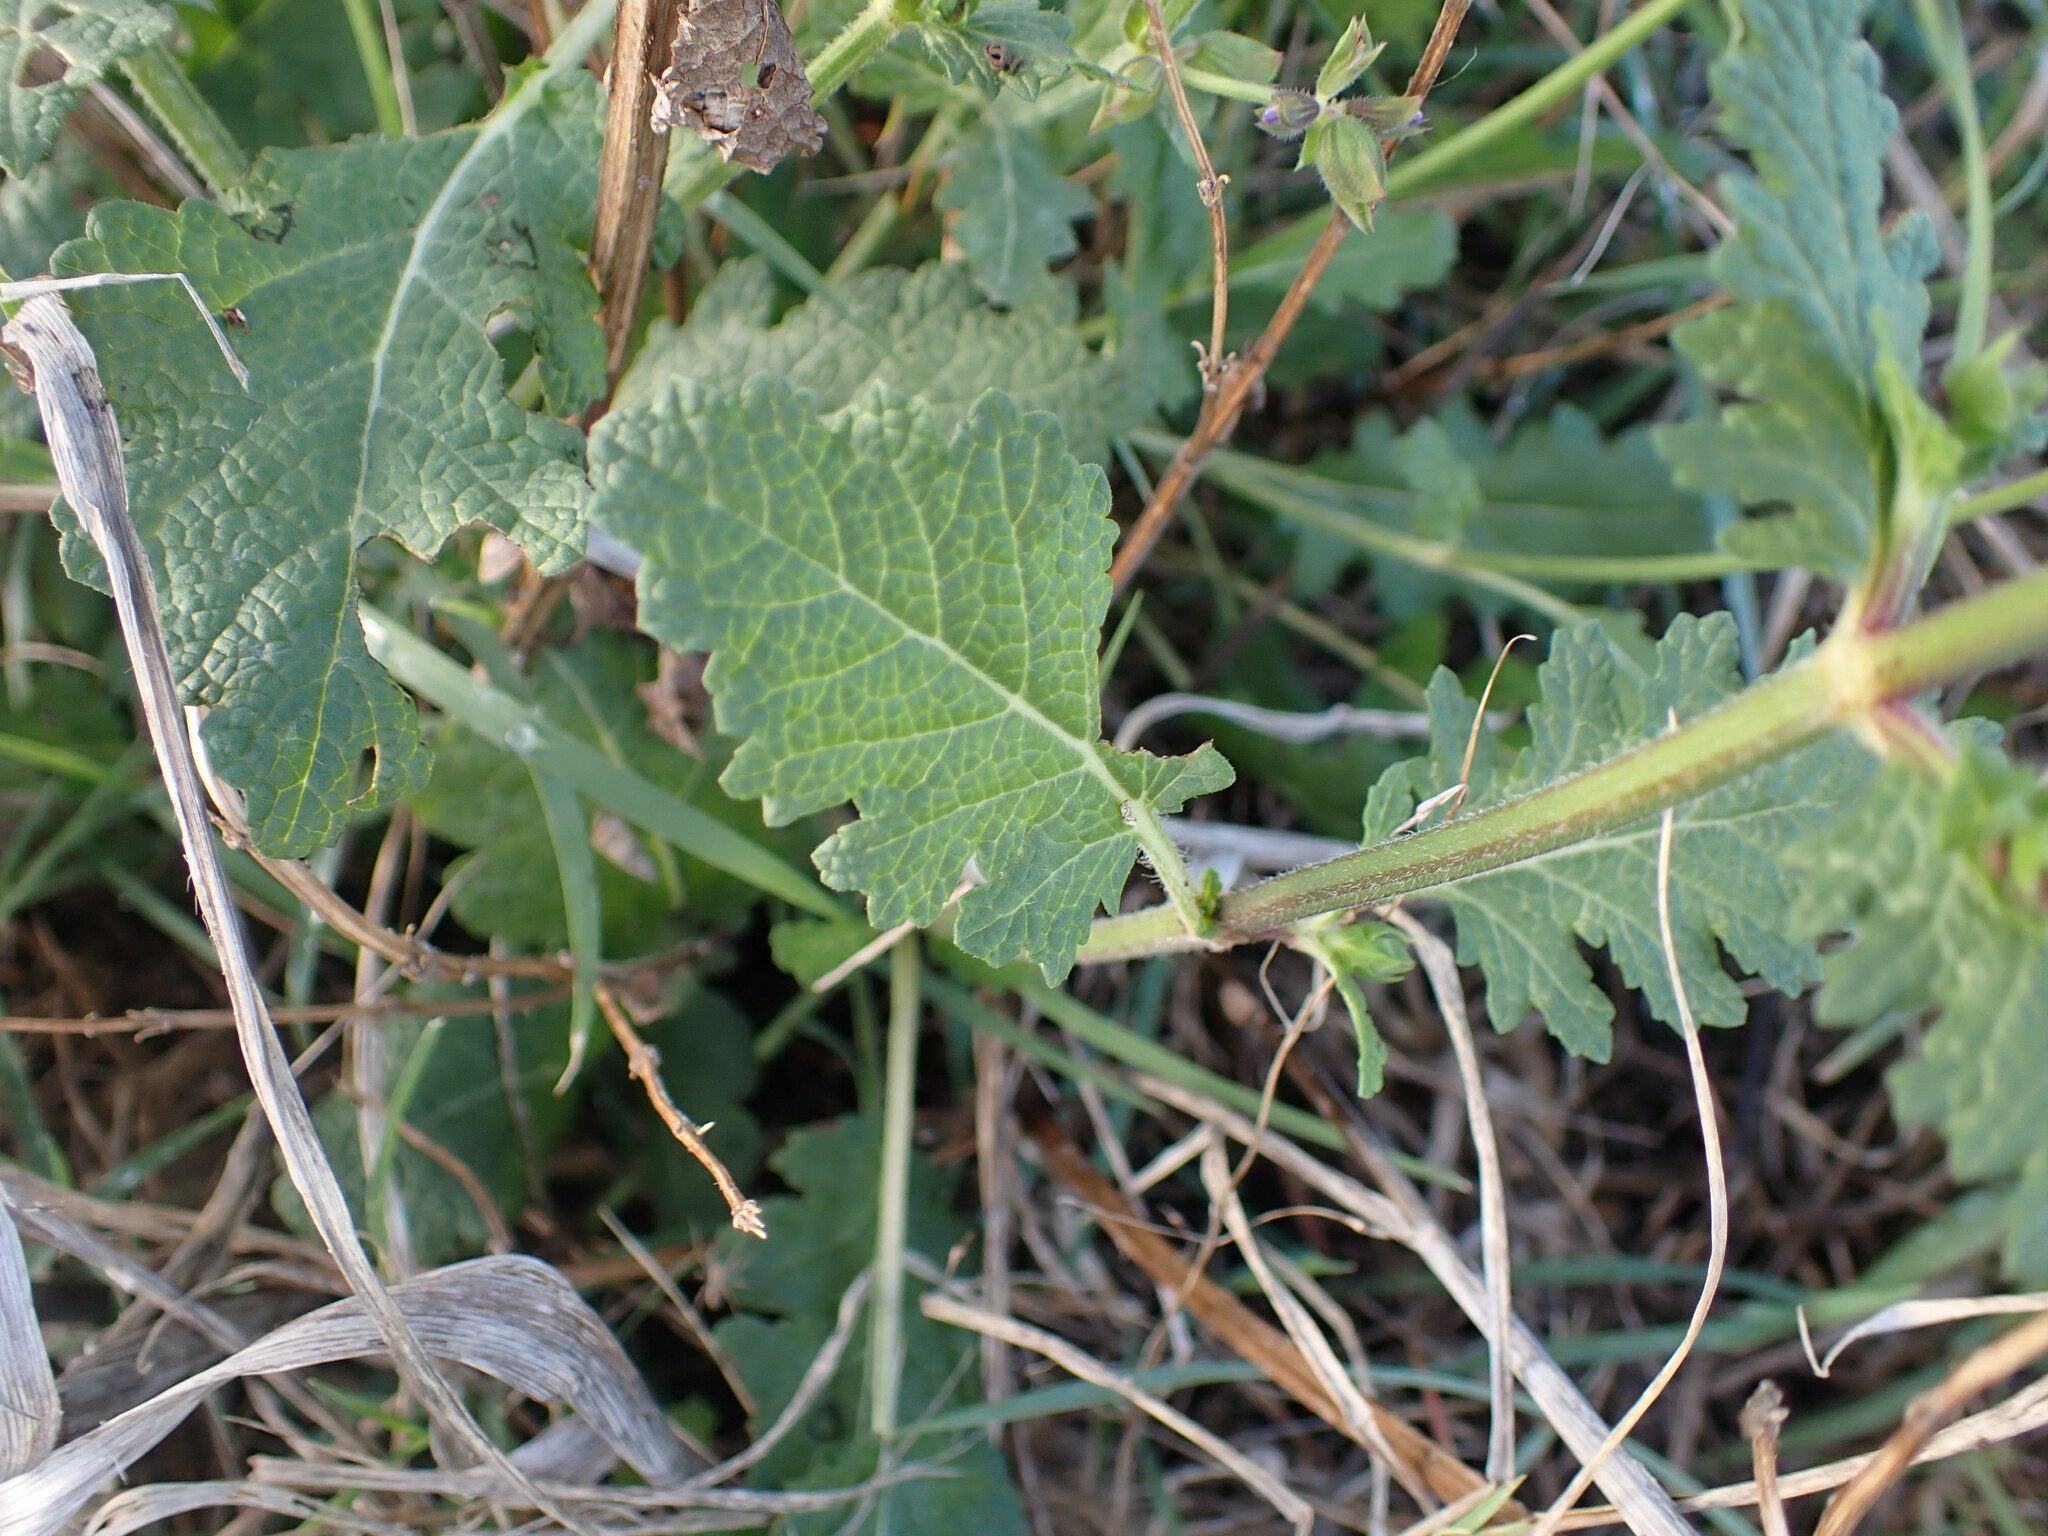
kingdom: Plantae
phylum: Tracheophyta
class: Magnoliopsida
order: Lamiales
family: Lamiaceae
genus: Salvia
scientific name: Salvia verbenaca
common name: Wild clary
